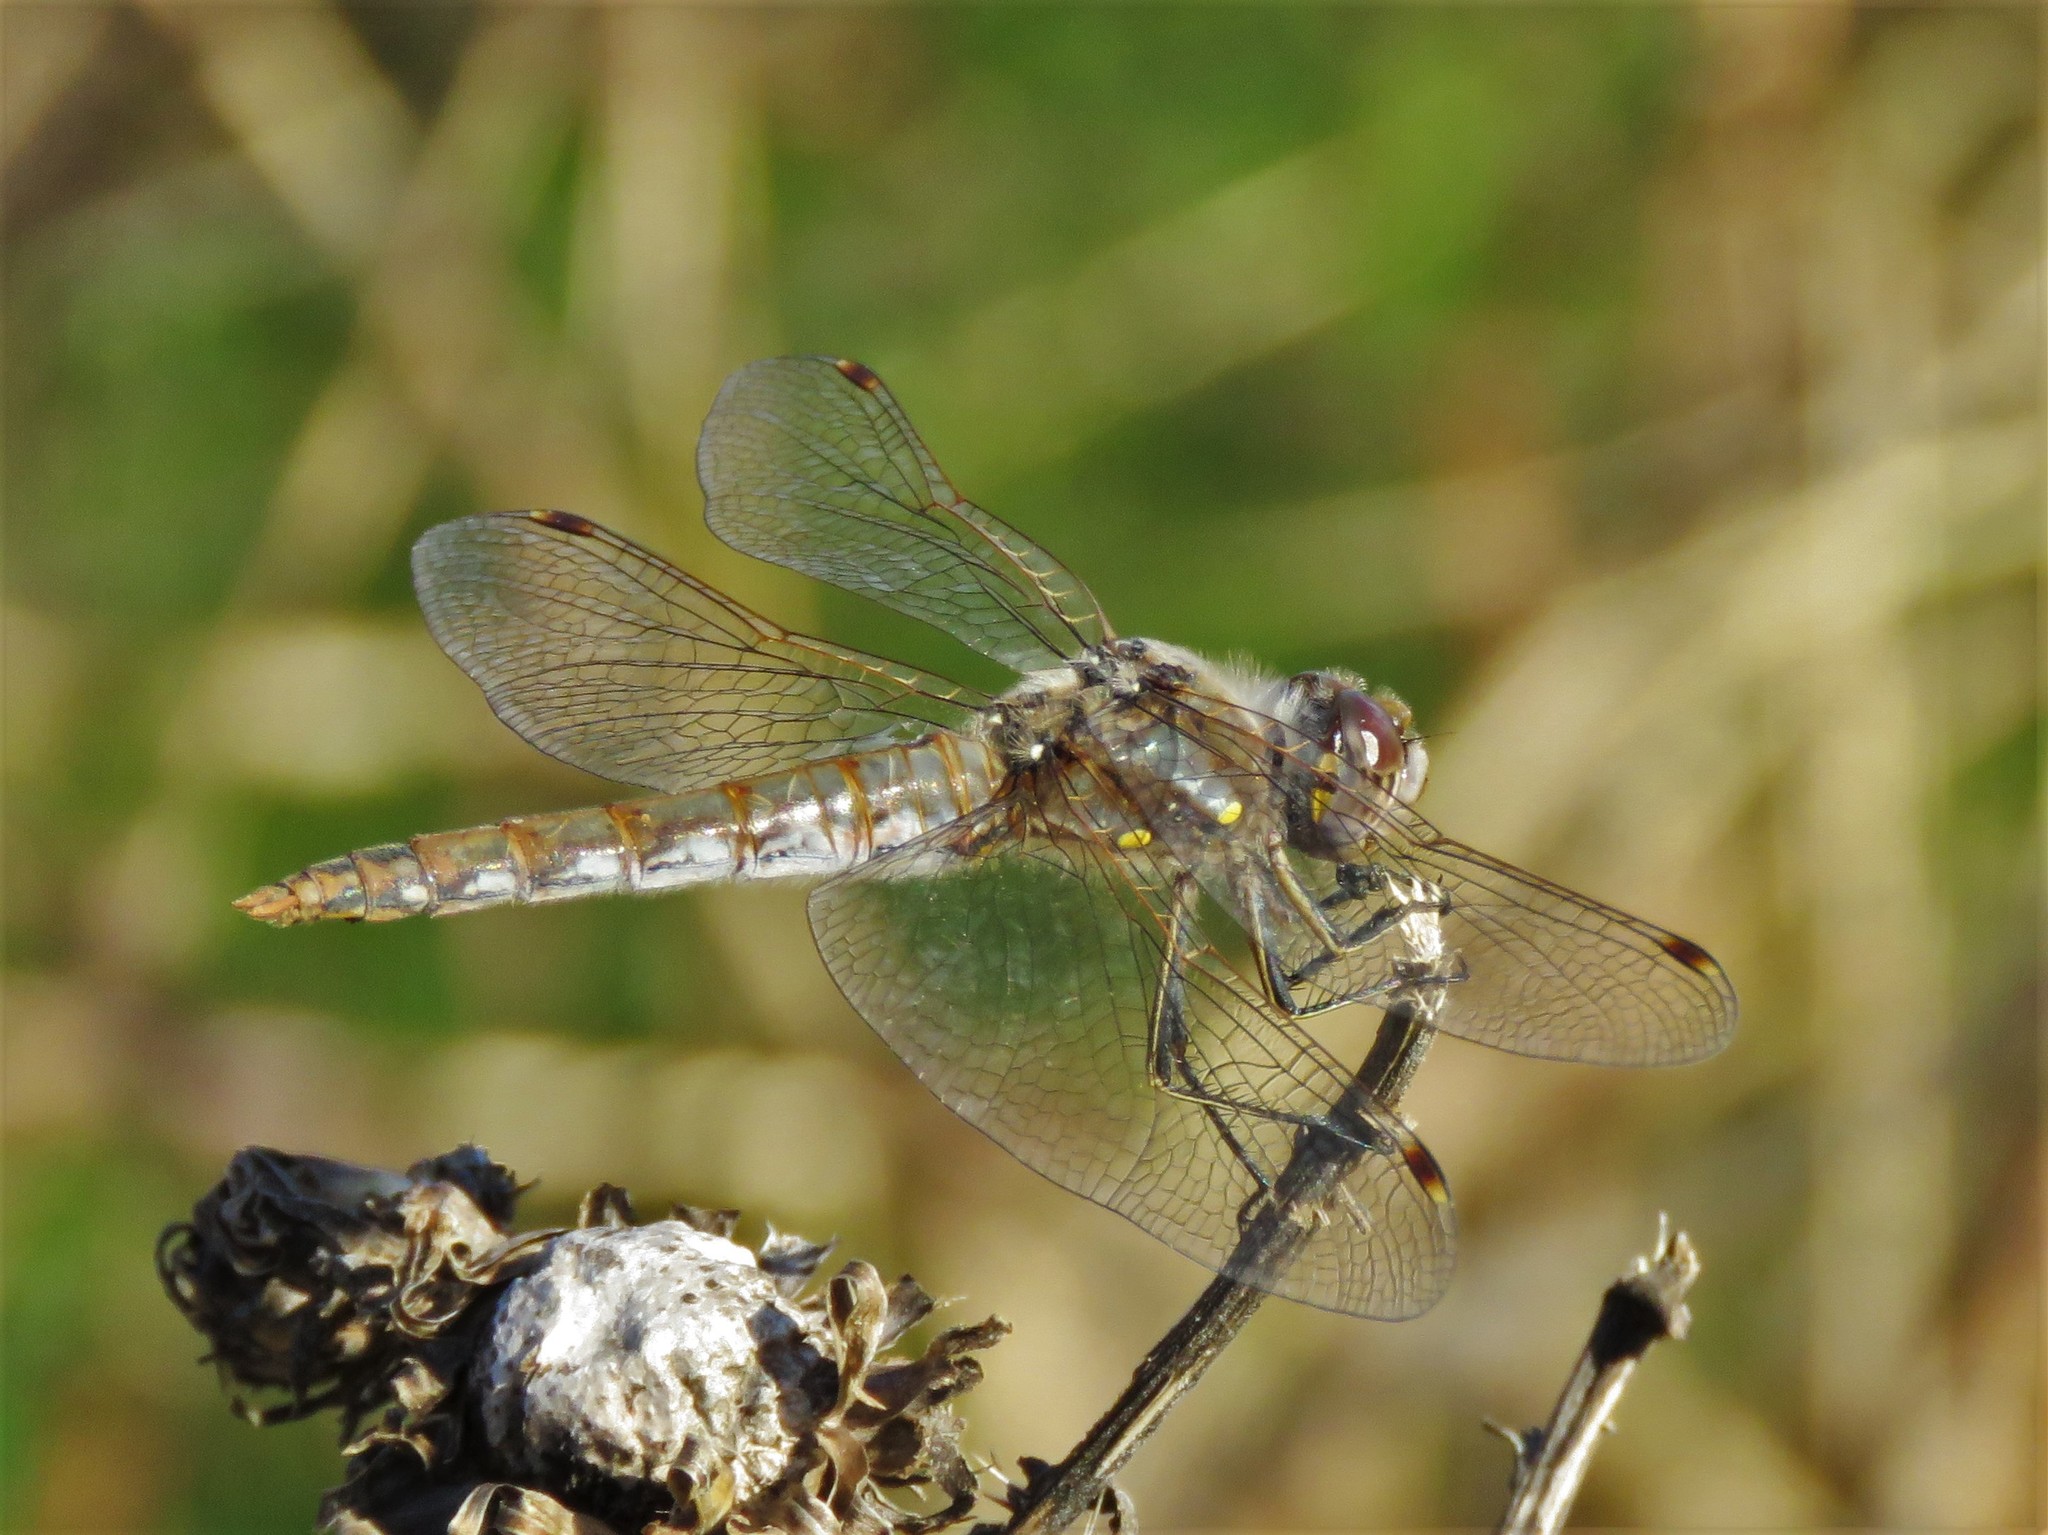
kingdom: Animalia
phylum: Arthropoda
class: Insecta
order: Odonata
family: Libellulidae
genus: Sympetrum
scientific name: Sympetrum corruptum
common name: Variegated meadowhawk
